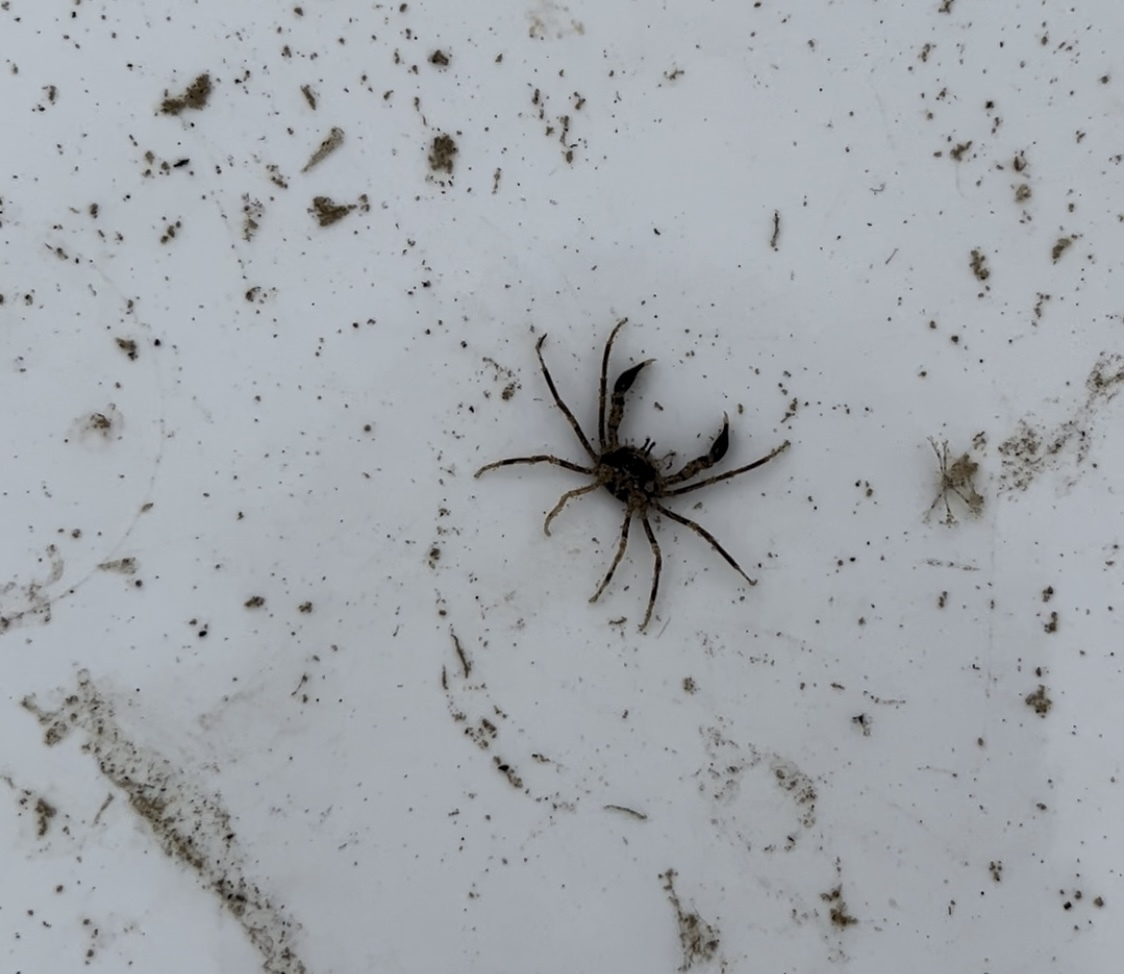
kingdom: Animalia
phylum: Arthropoda
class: Malacostraca
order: Decapoda
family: Hymenosomatidae
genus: Halicarcinus
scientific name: Halicarcinus ovatus
